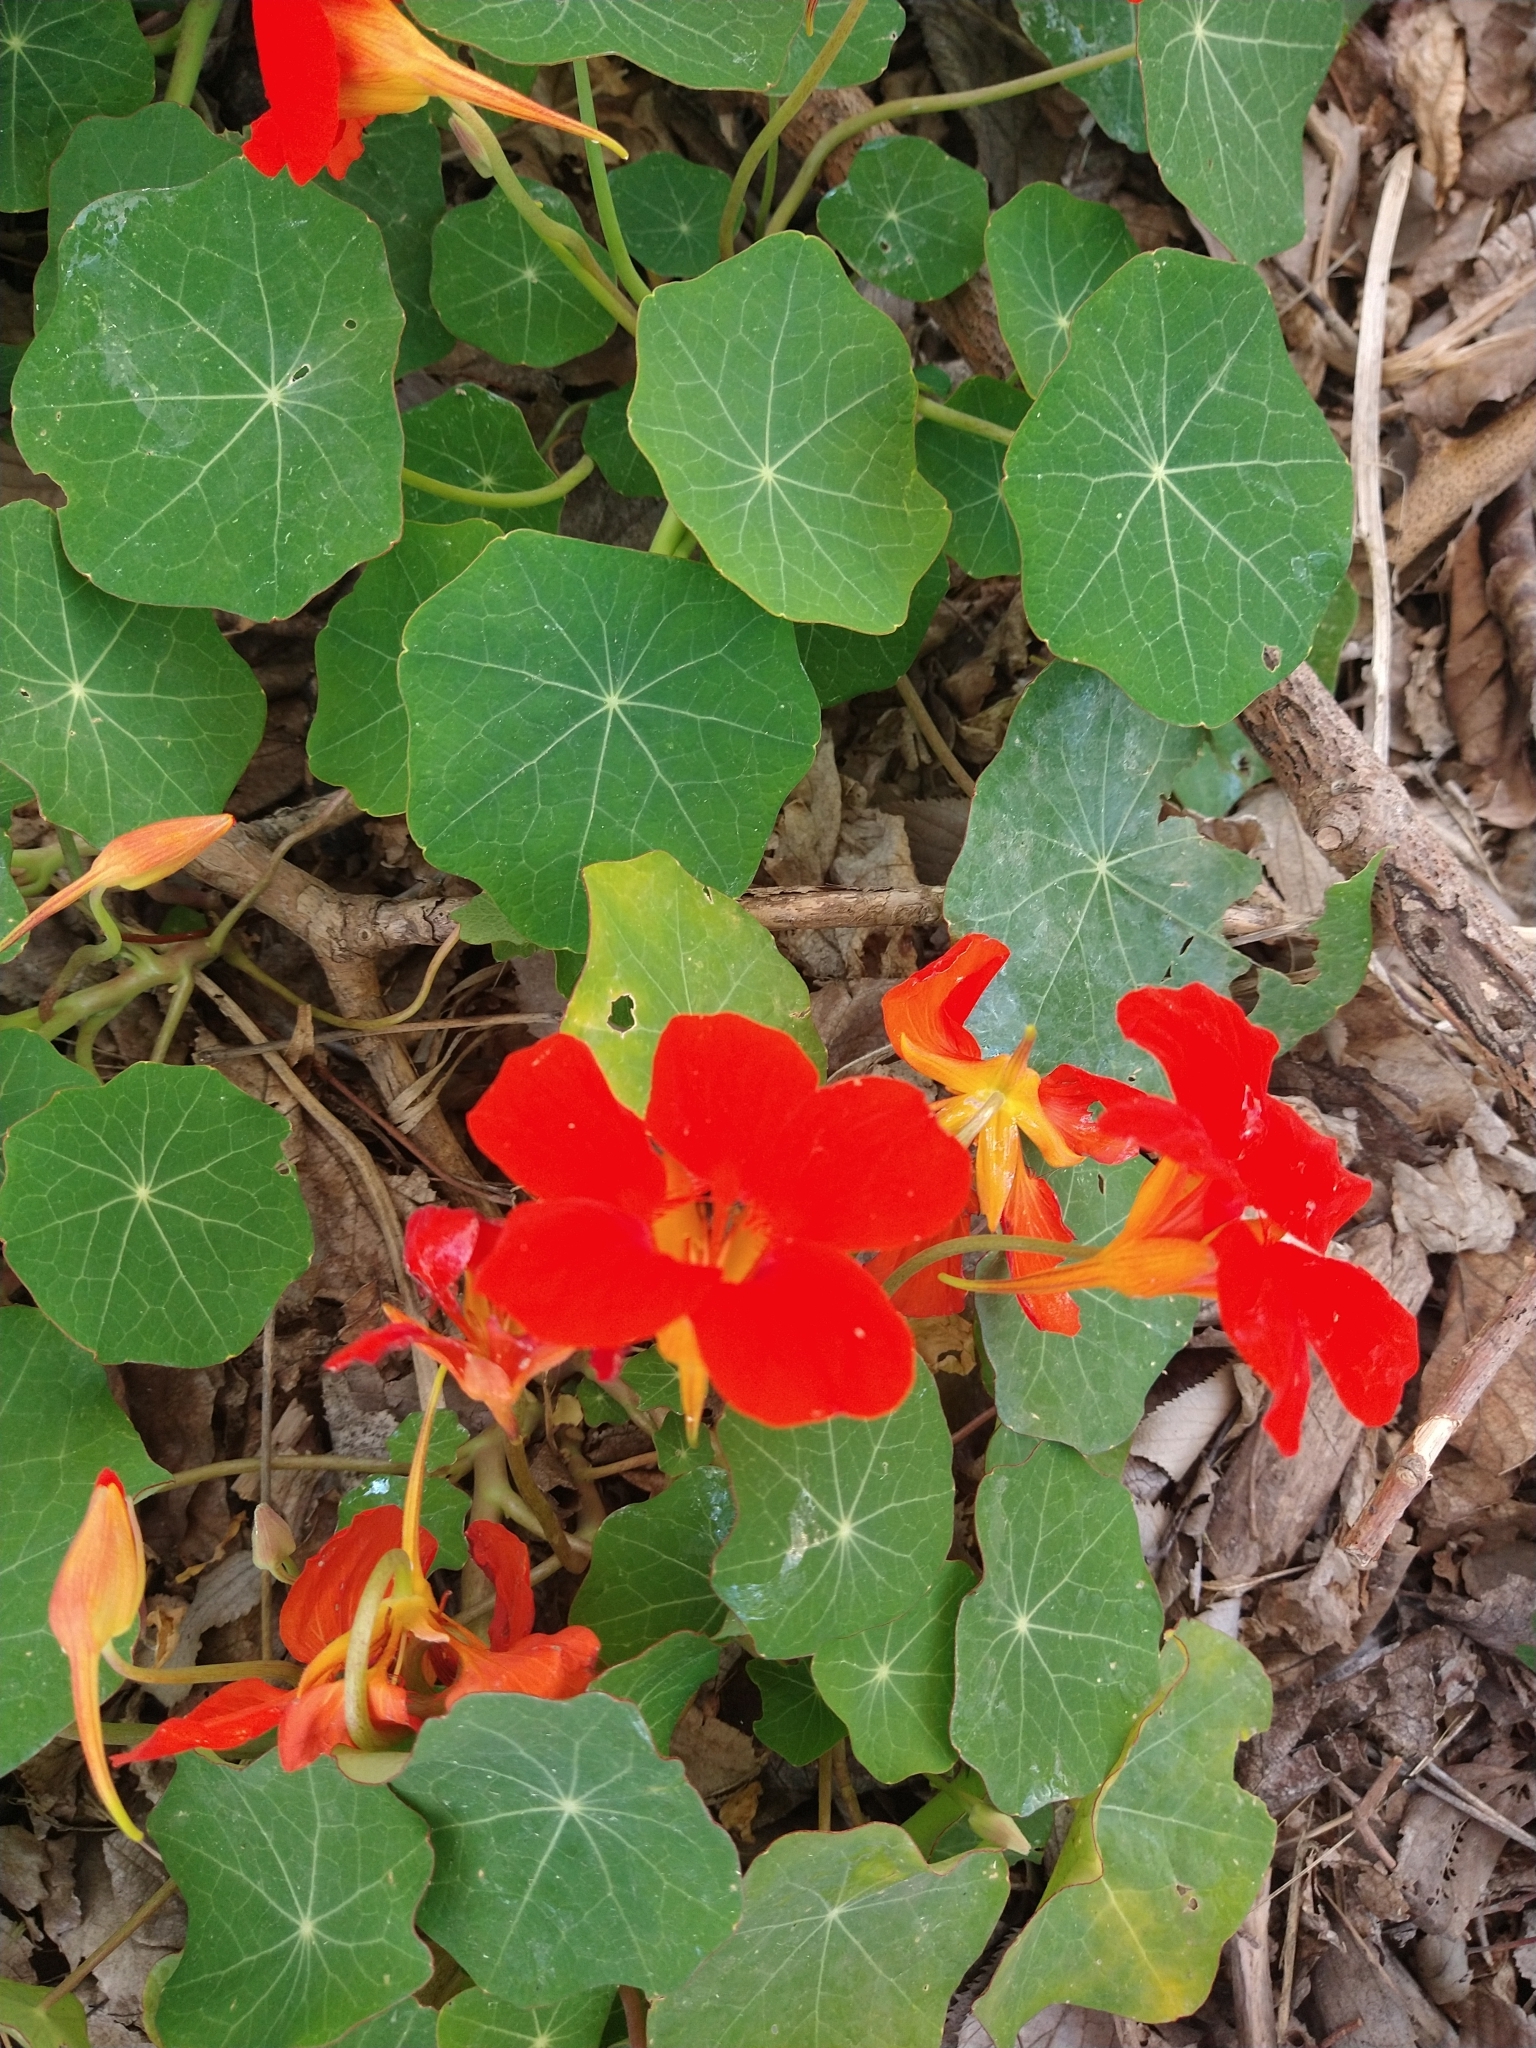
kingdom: Plantae
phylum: Tracheophyta
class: Magnoliopsida
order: Brassicales
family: Tropaeolaceae
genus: Tropaeolum
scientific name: Tropaeolum majus
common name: Nasturtium
